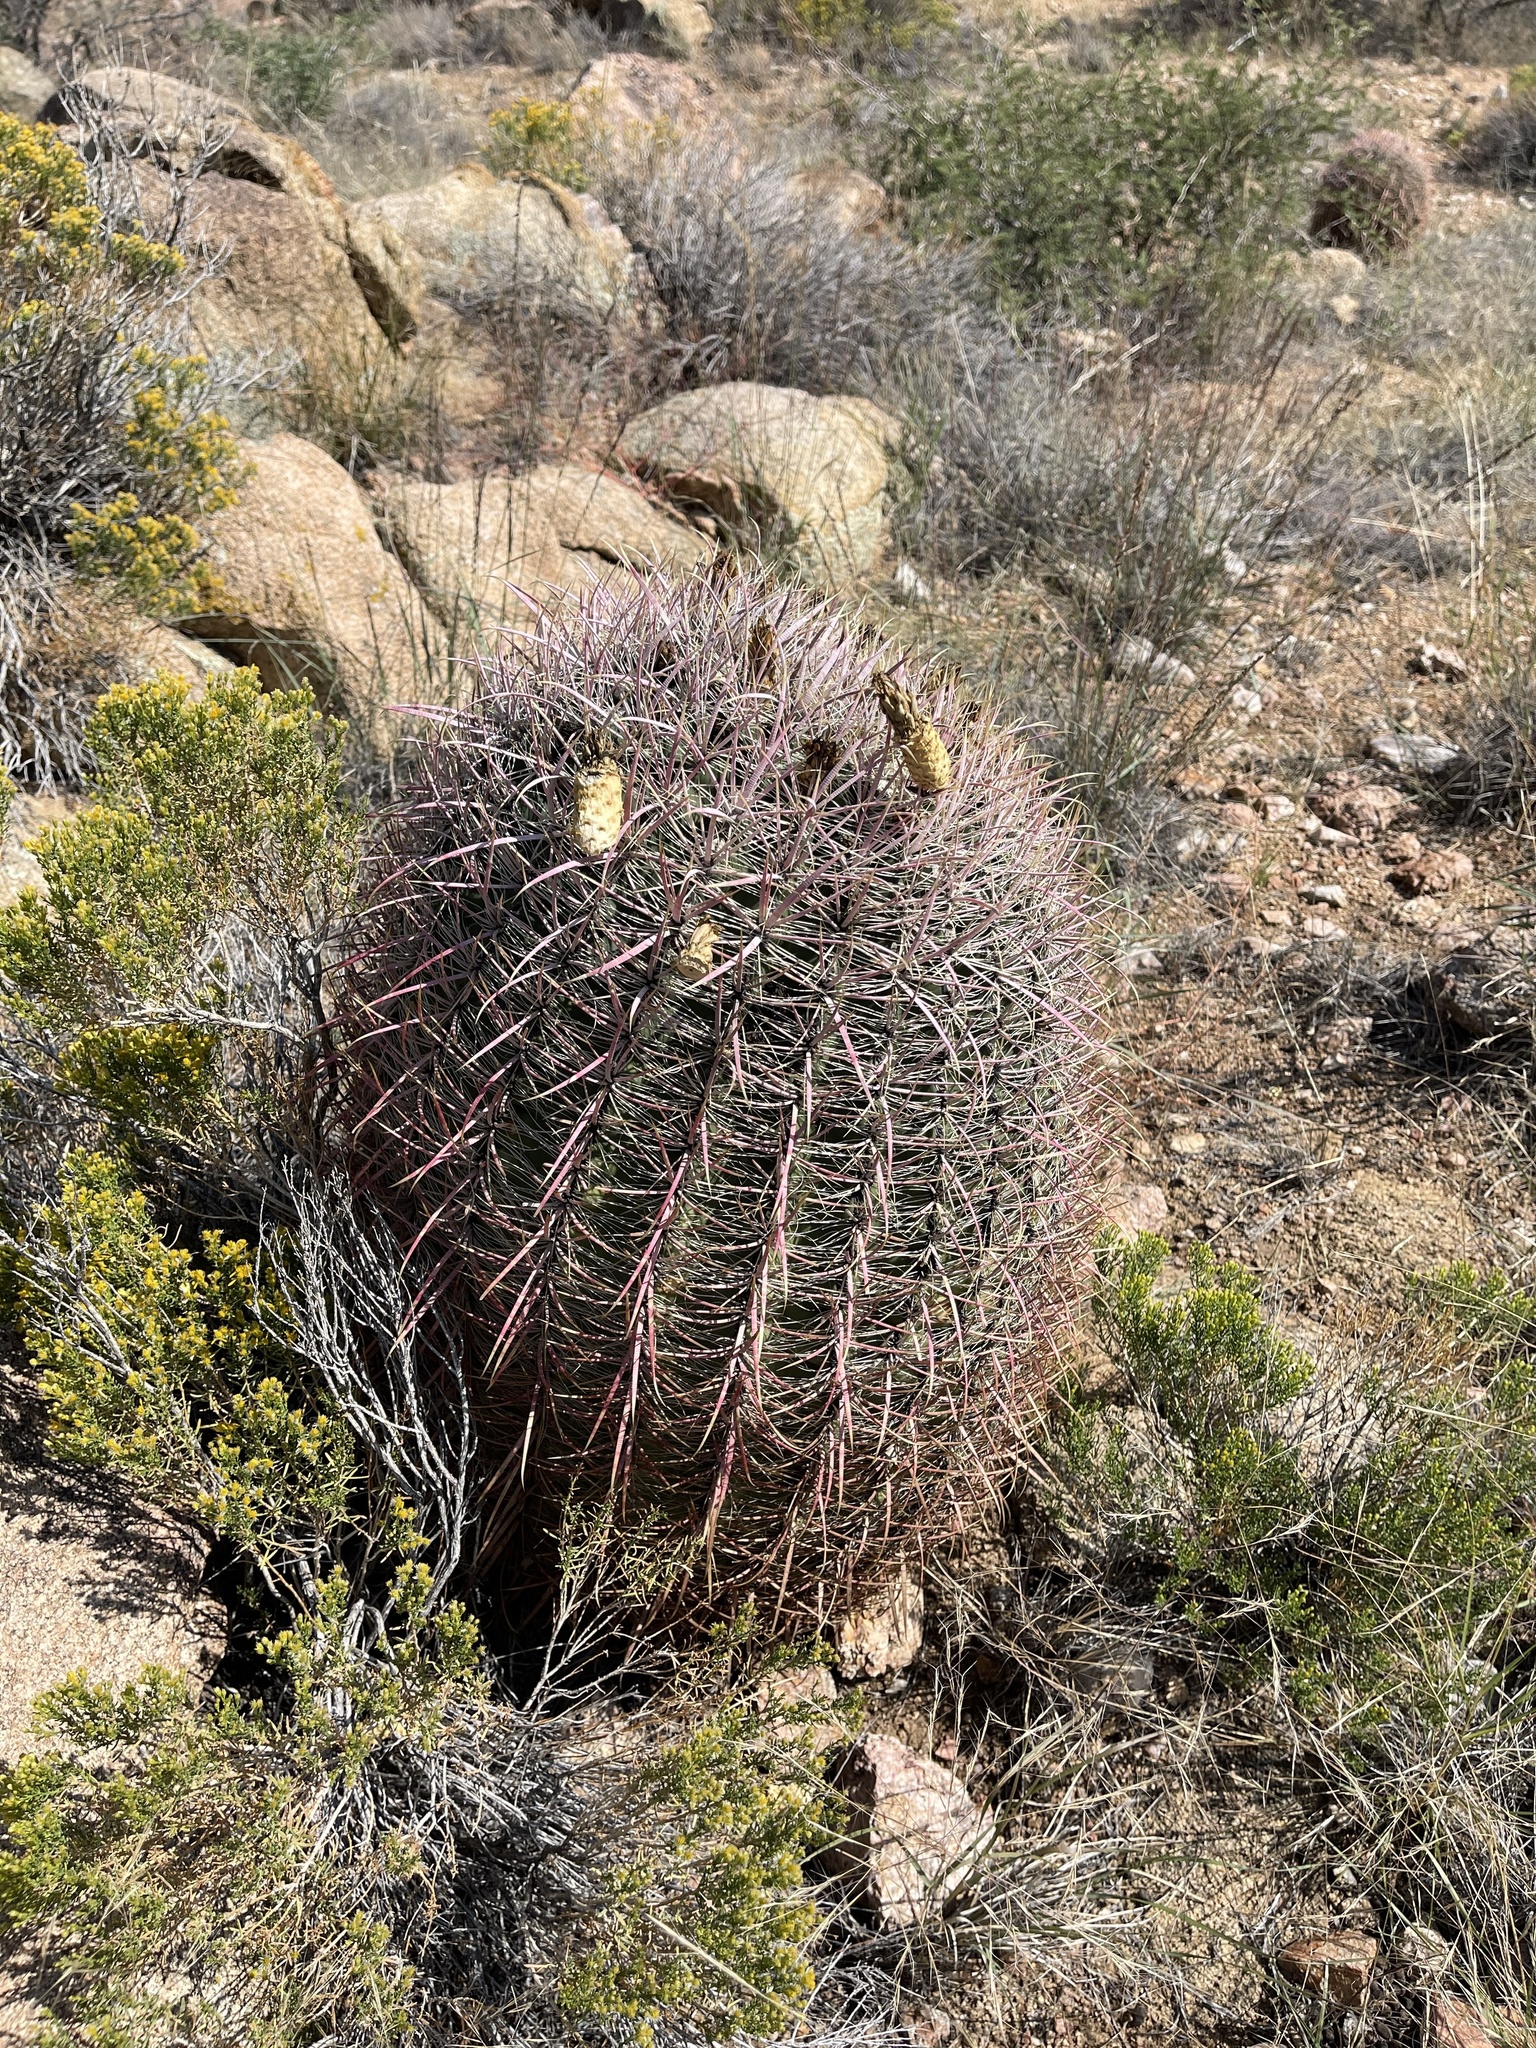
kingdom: Plantae
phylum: Tracheophyta
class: Magnoliopsida
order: Caryophyllales
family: Cactaceae
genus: Ferocactus
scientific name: Ferocactus cylindraceus
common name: California barrel cactus
